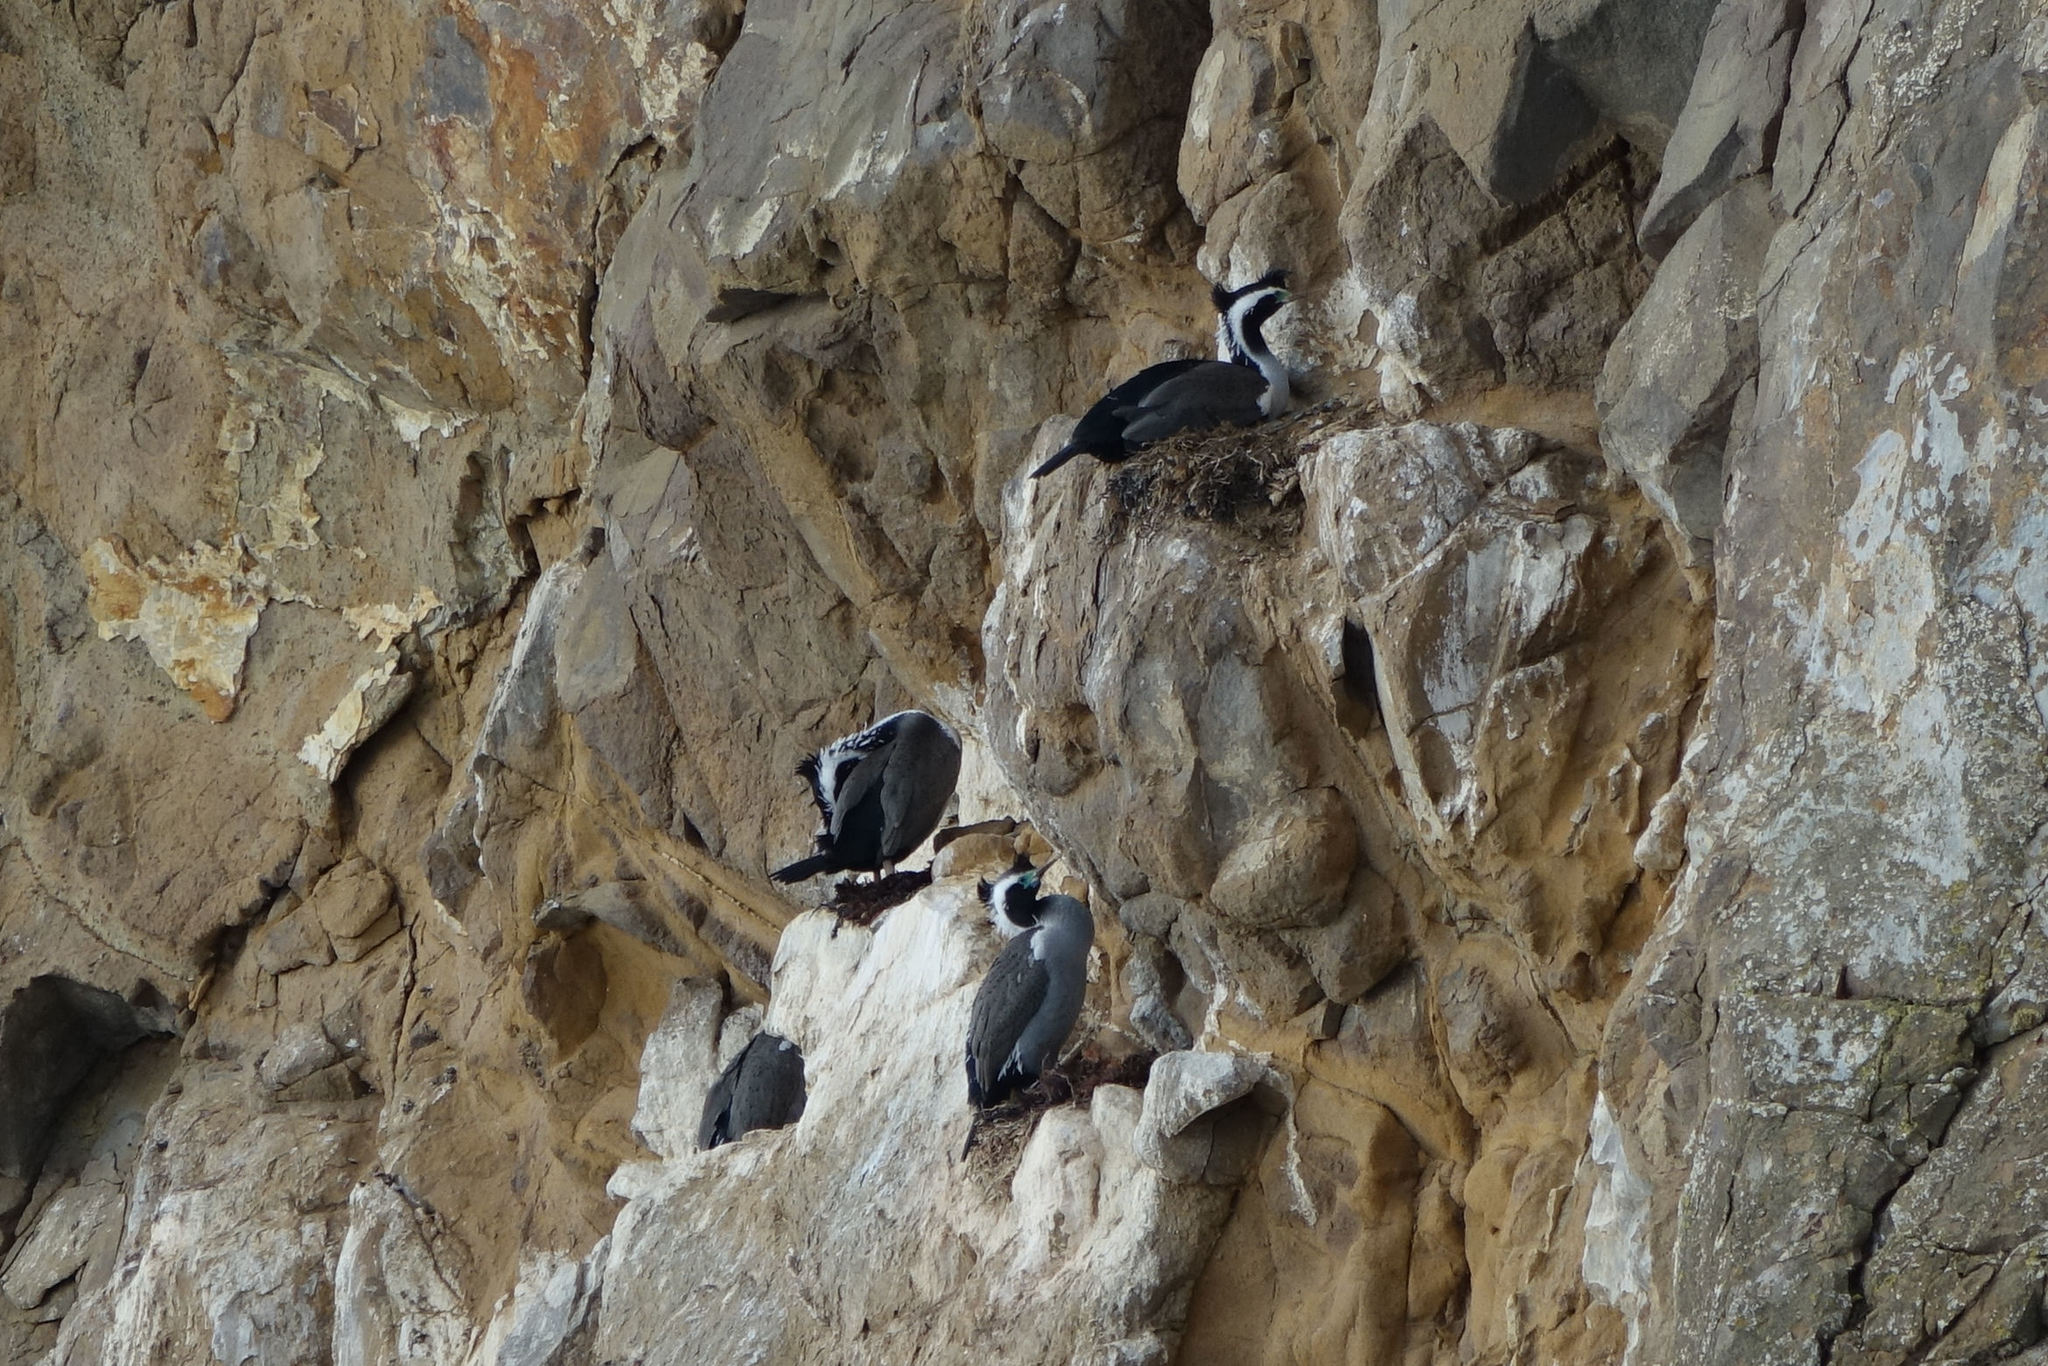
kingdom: Animalia
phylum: Chordata
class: Aves
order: Suliformes
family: Phalacrocoracidae
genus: Phalacrocorax
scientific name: Phalacrocorax punctatus
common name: Spotted shag
